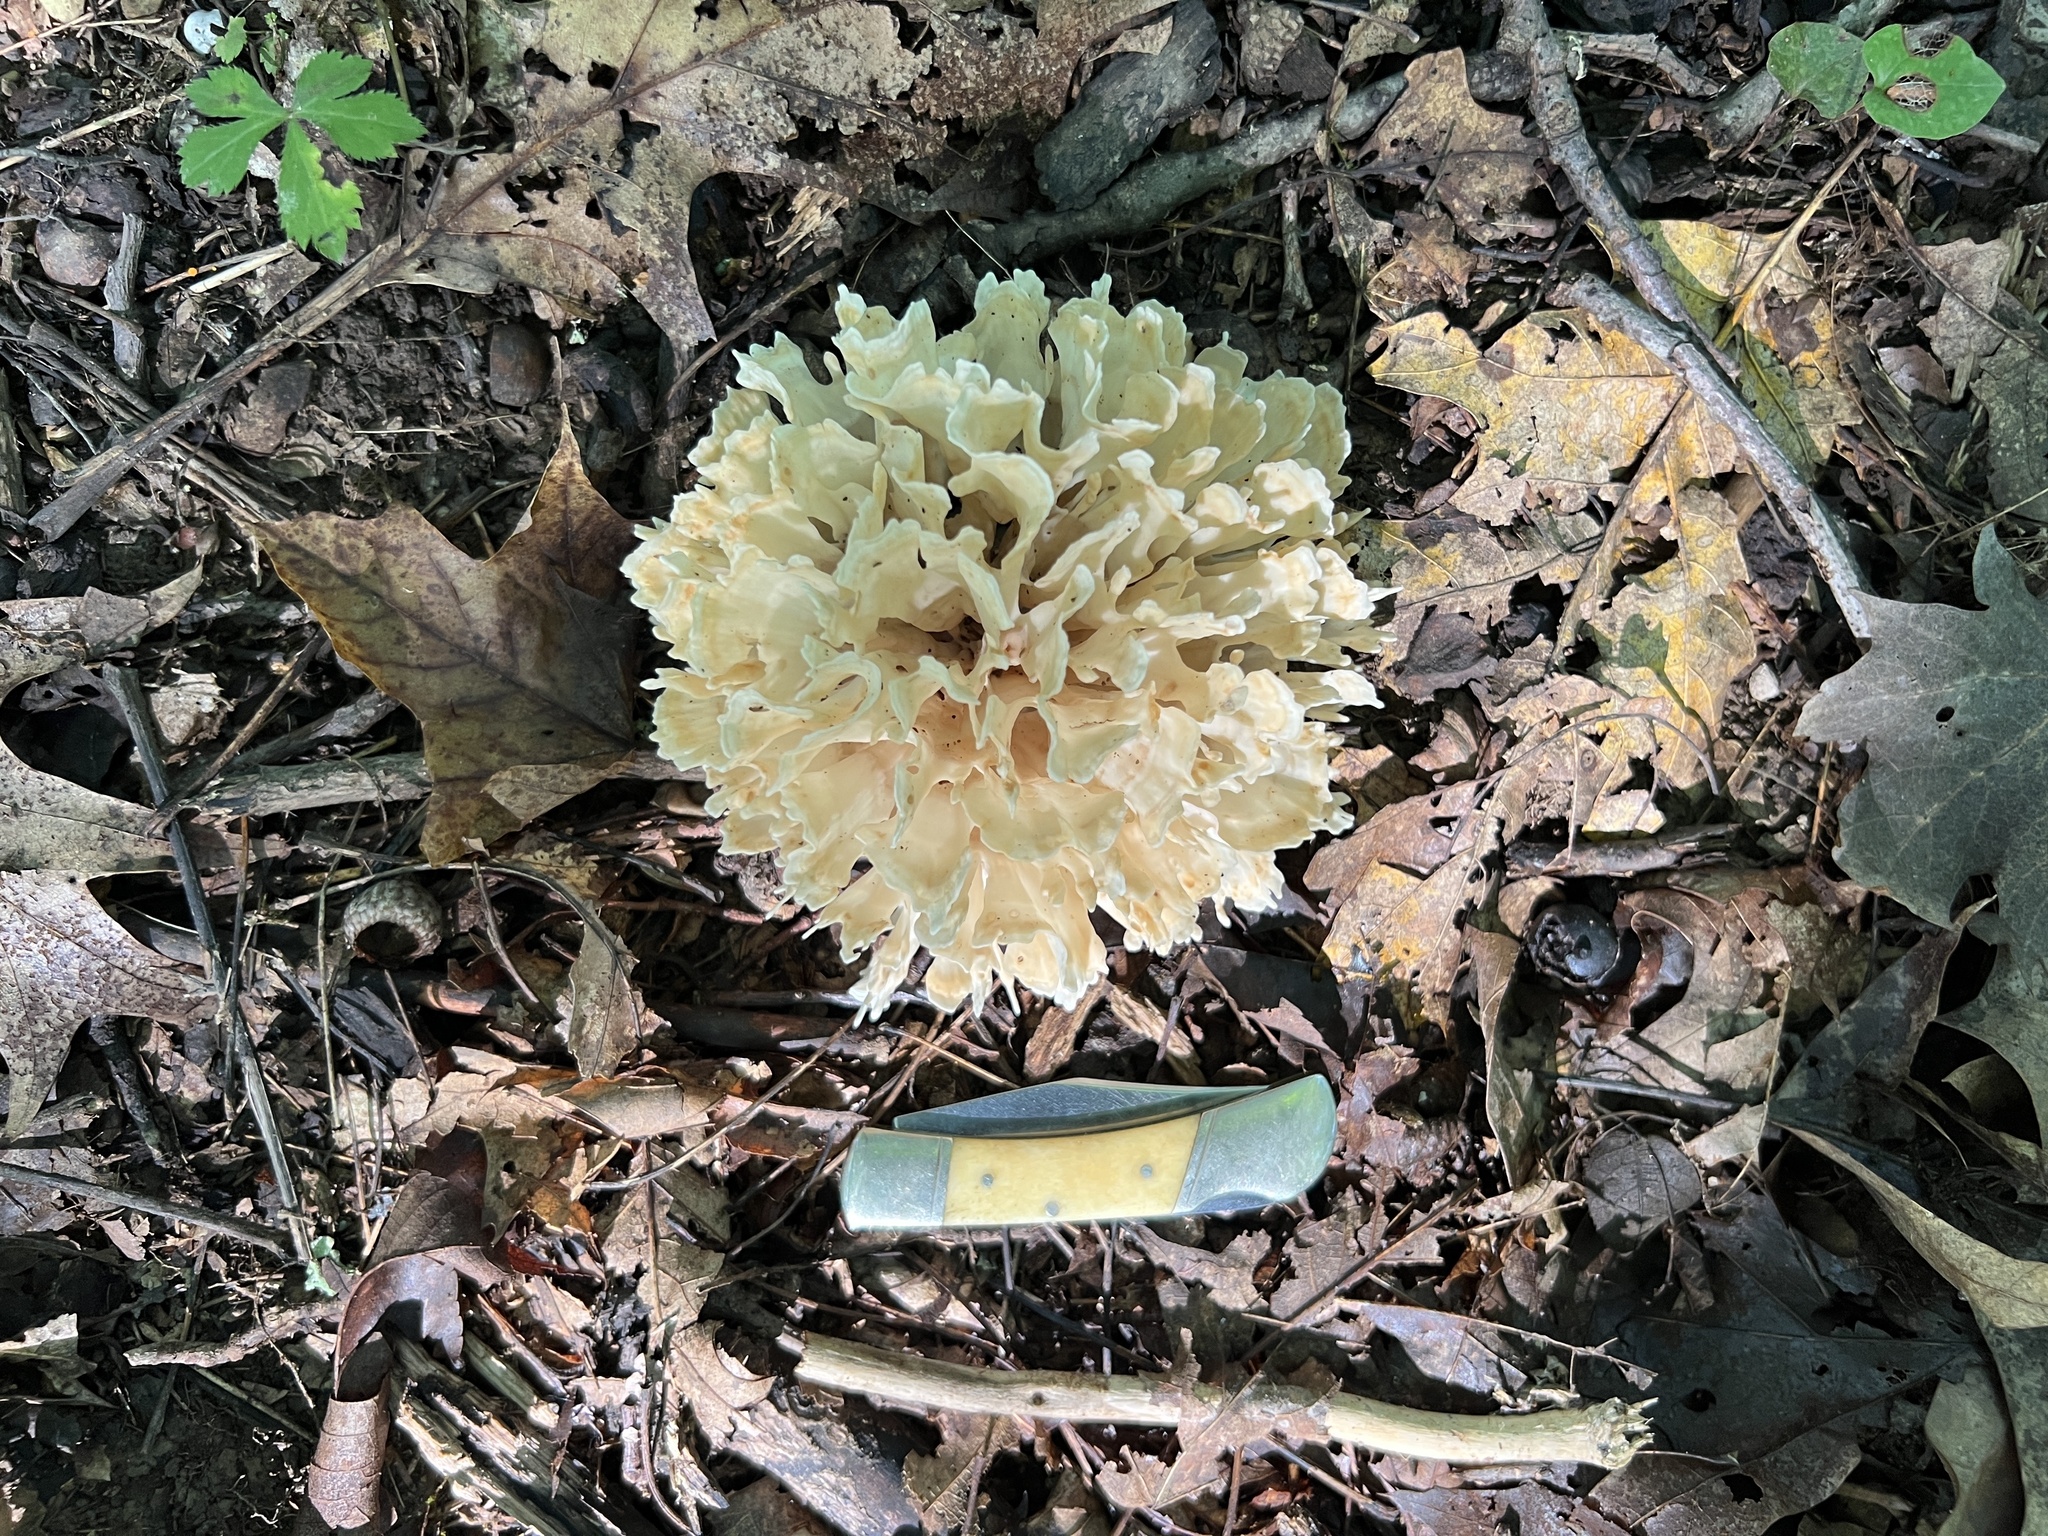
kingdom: Fungi
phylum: Basidiomycota
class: Agaricomycetes
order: Polyporales
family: Sparassidaceae
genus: Sparassis
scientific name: Sparassis spathulata
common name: Eastern cauliflower mushroom
